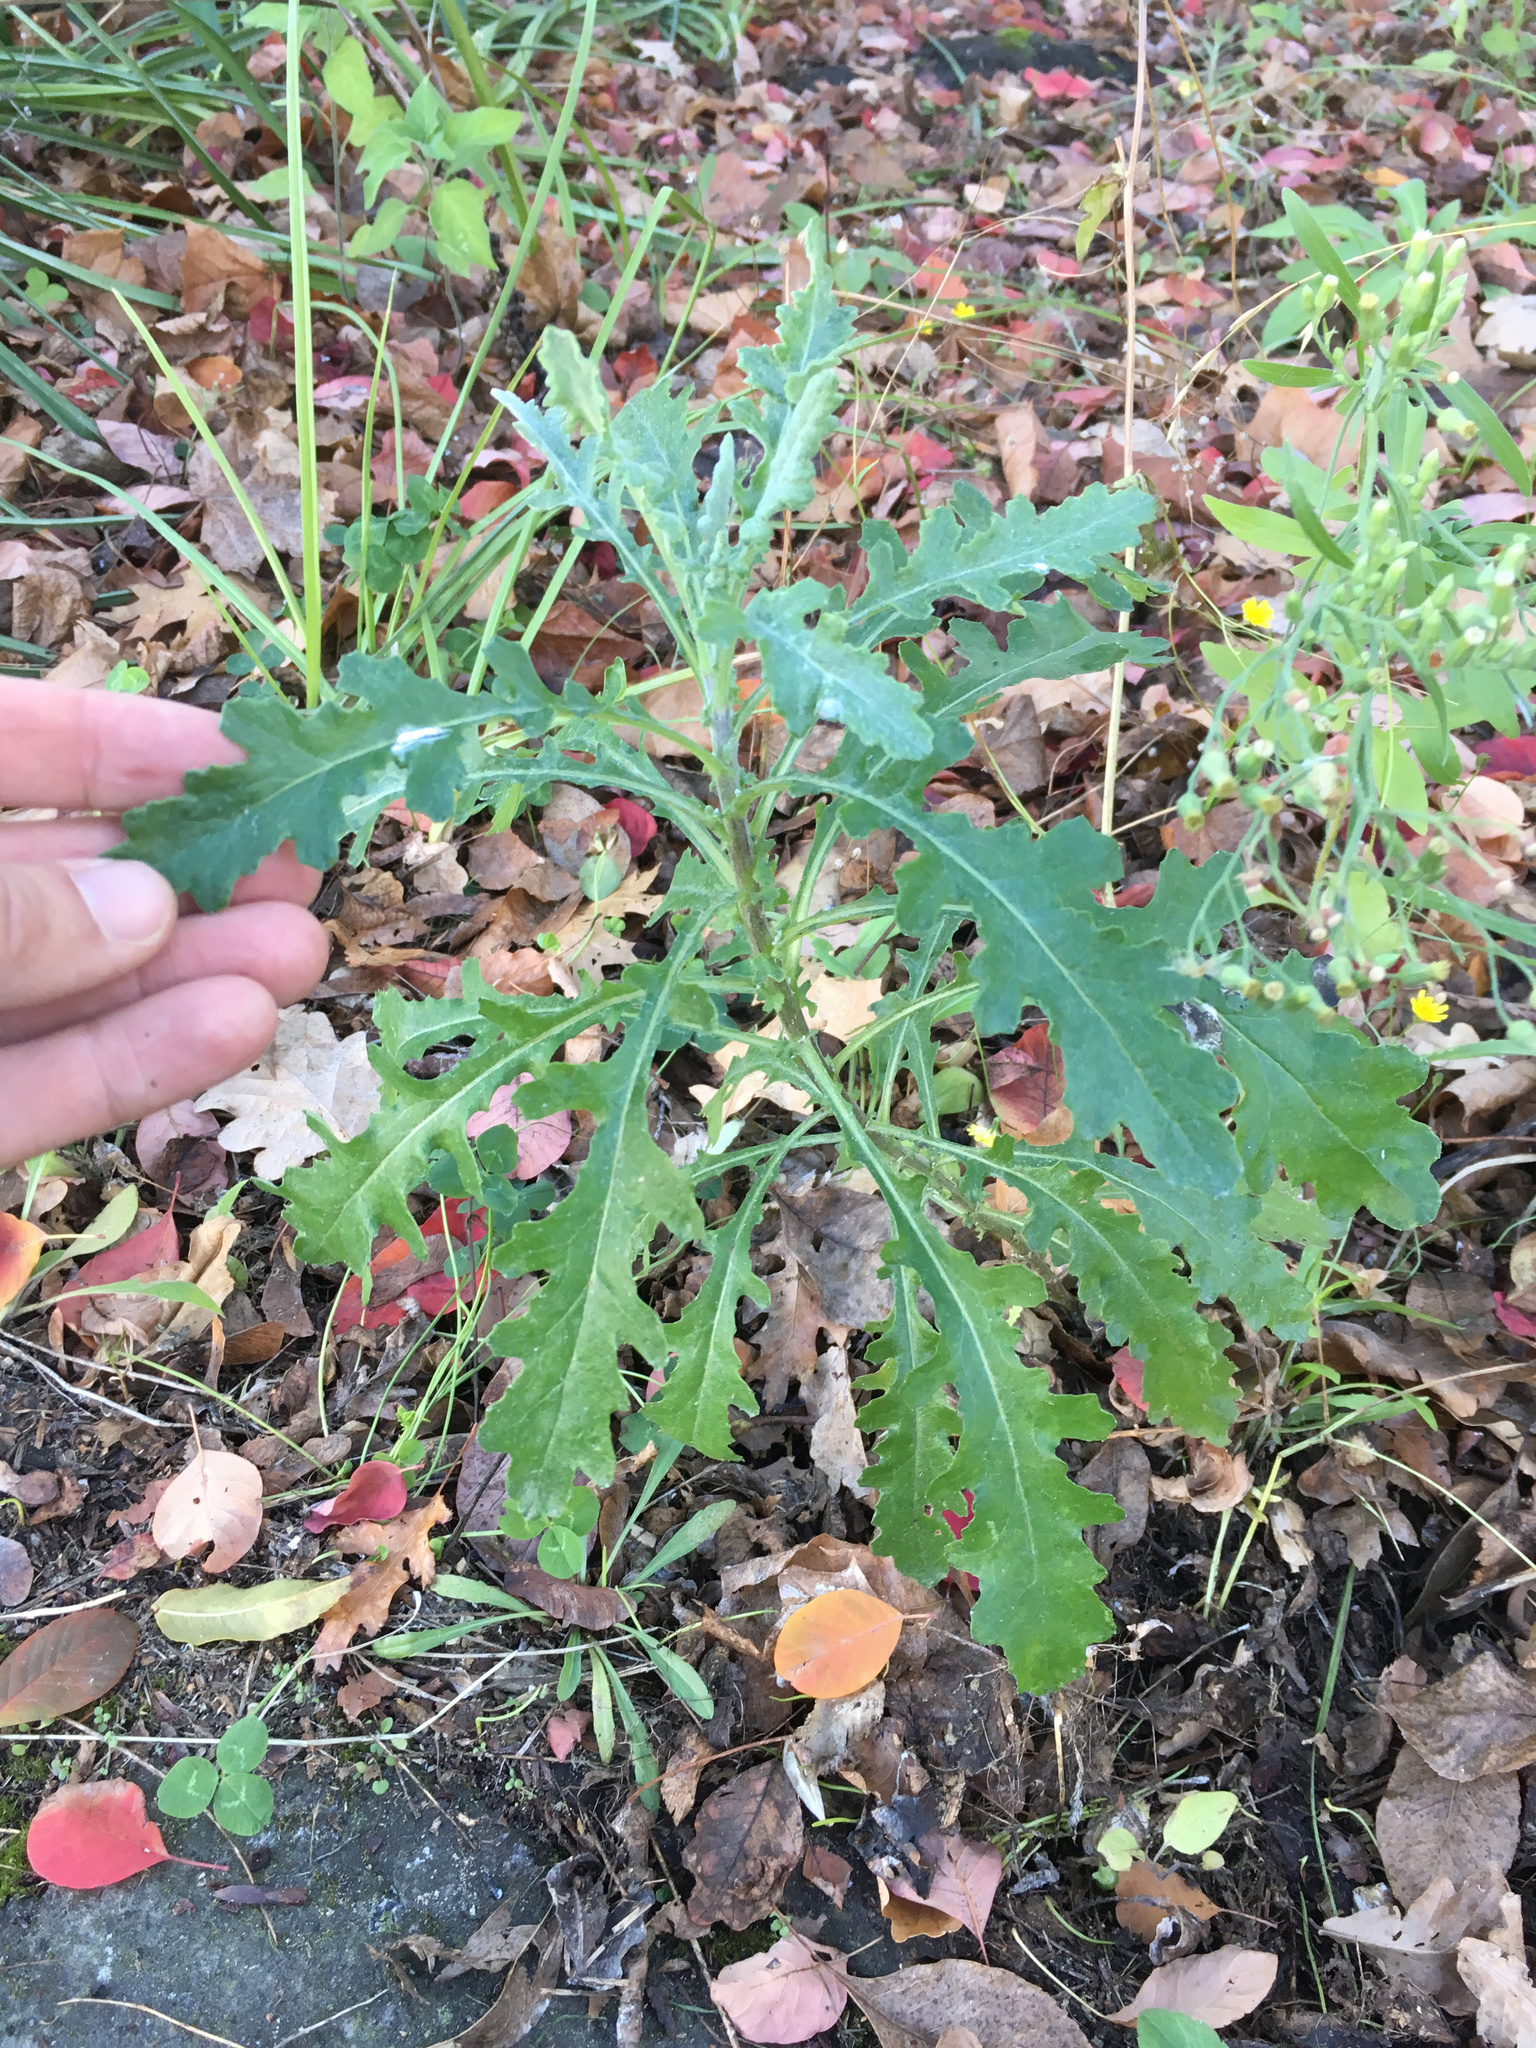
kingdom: Plantae
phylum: Tracheophyta
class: Magnoliopsida
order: Asterales
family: Asteraceae
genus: Senecio
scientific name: Senecio glomeratus
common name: Cutleaf burnweed
